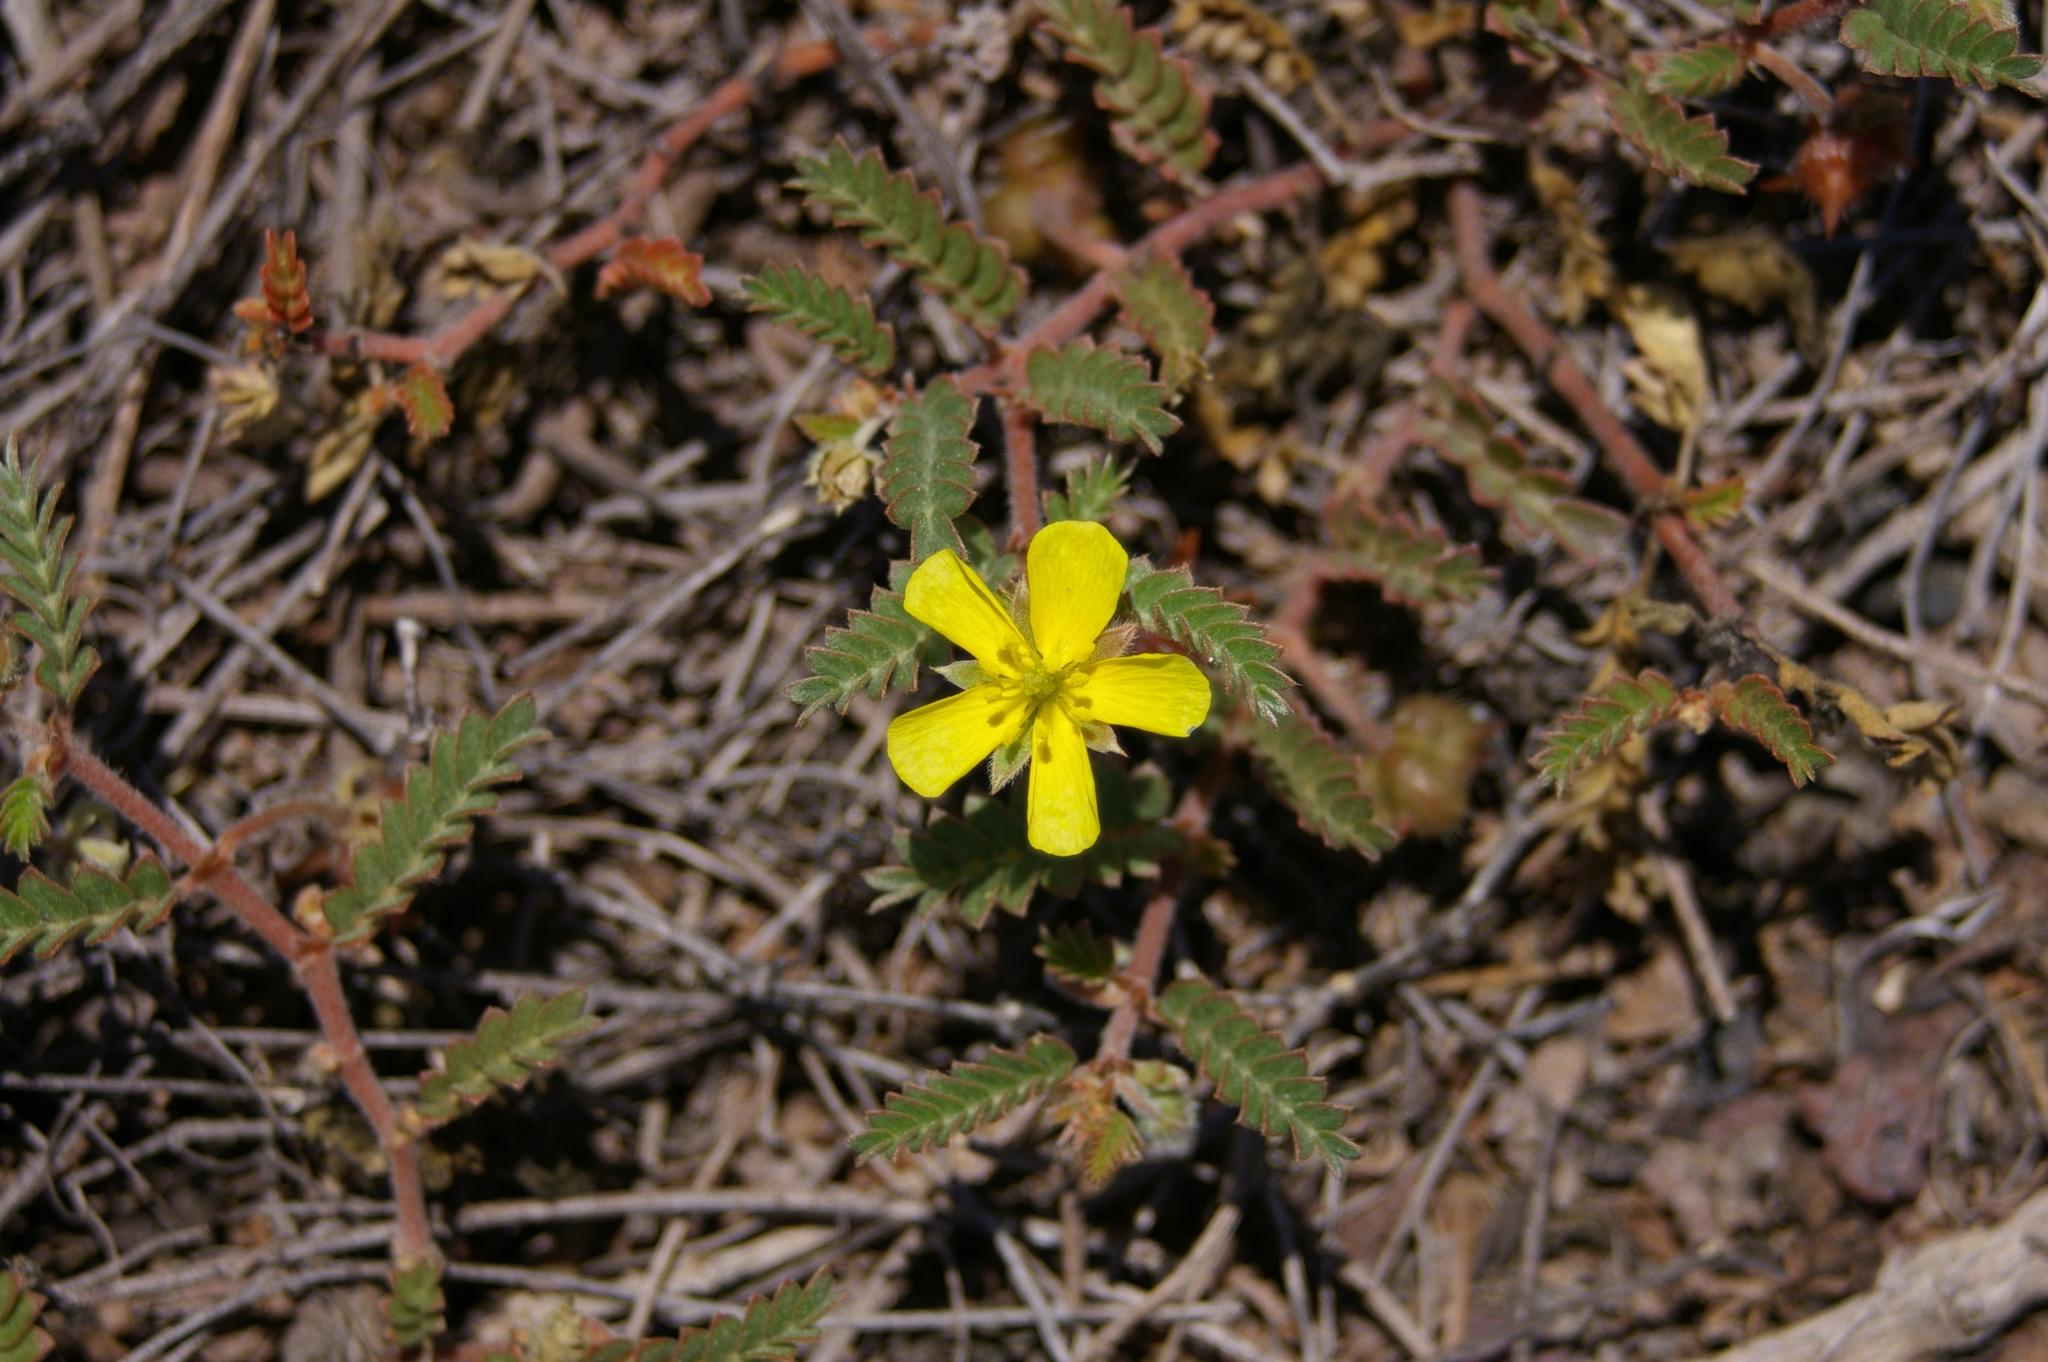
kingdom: Plantae
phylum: Tracheophyta
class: Magnoliopsida
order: Zygophyllales
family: Zygophyllaceae
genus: Tribulus
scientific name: Tribulus terrestris
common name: Puncturevine
